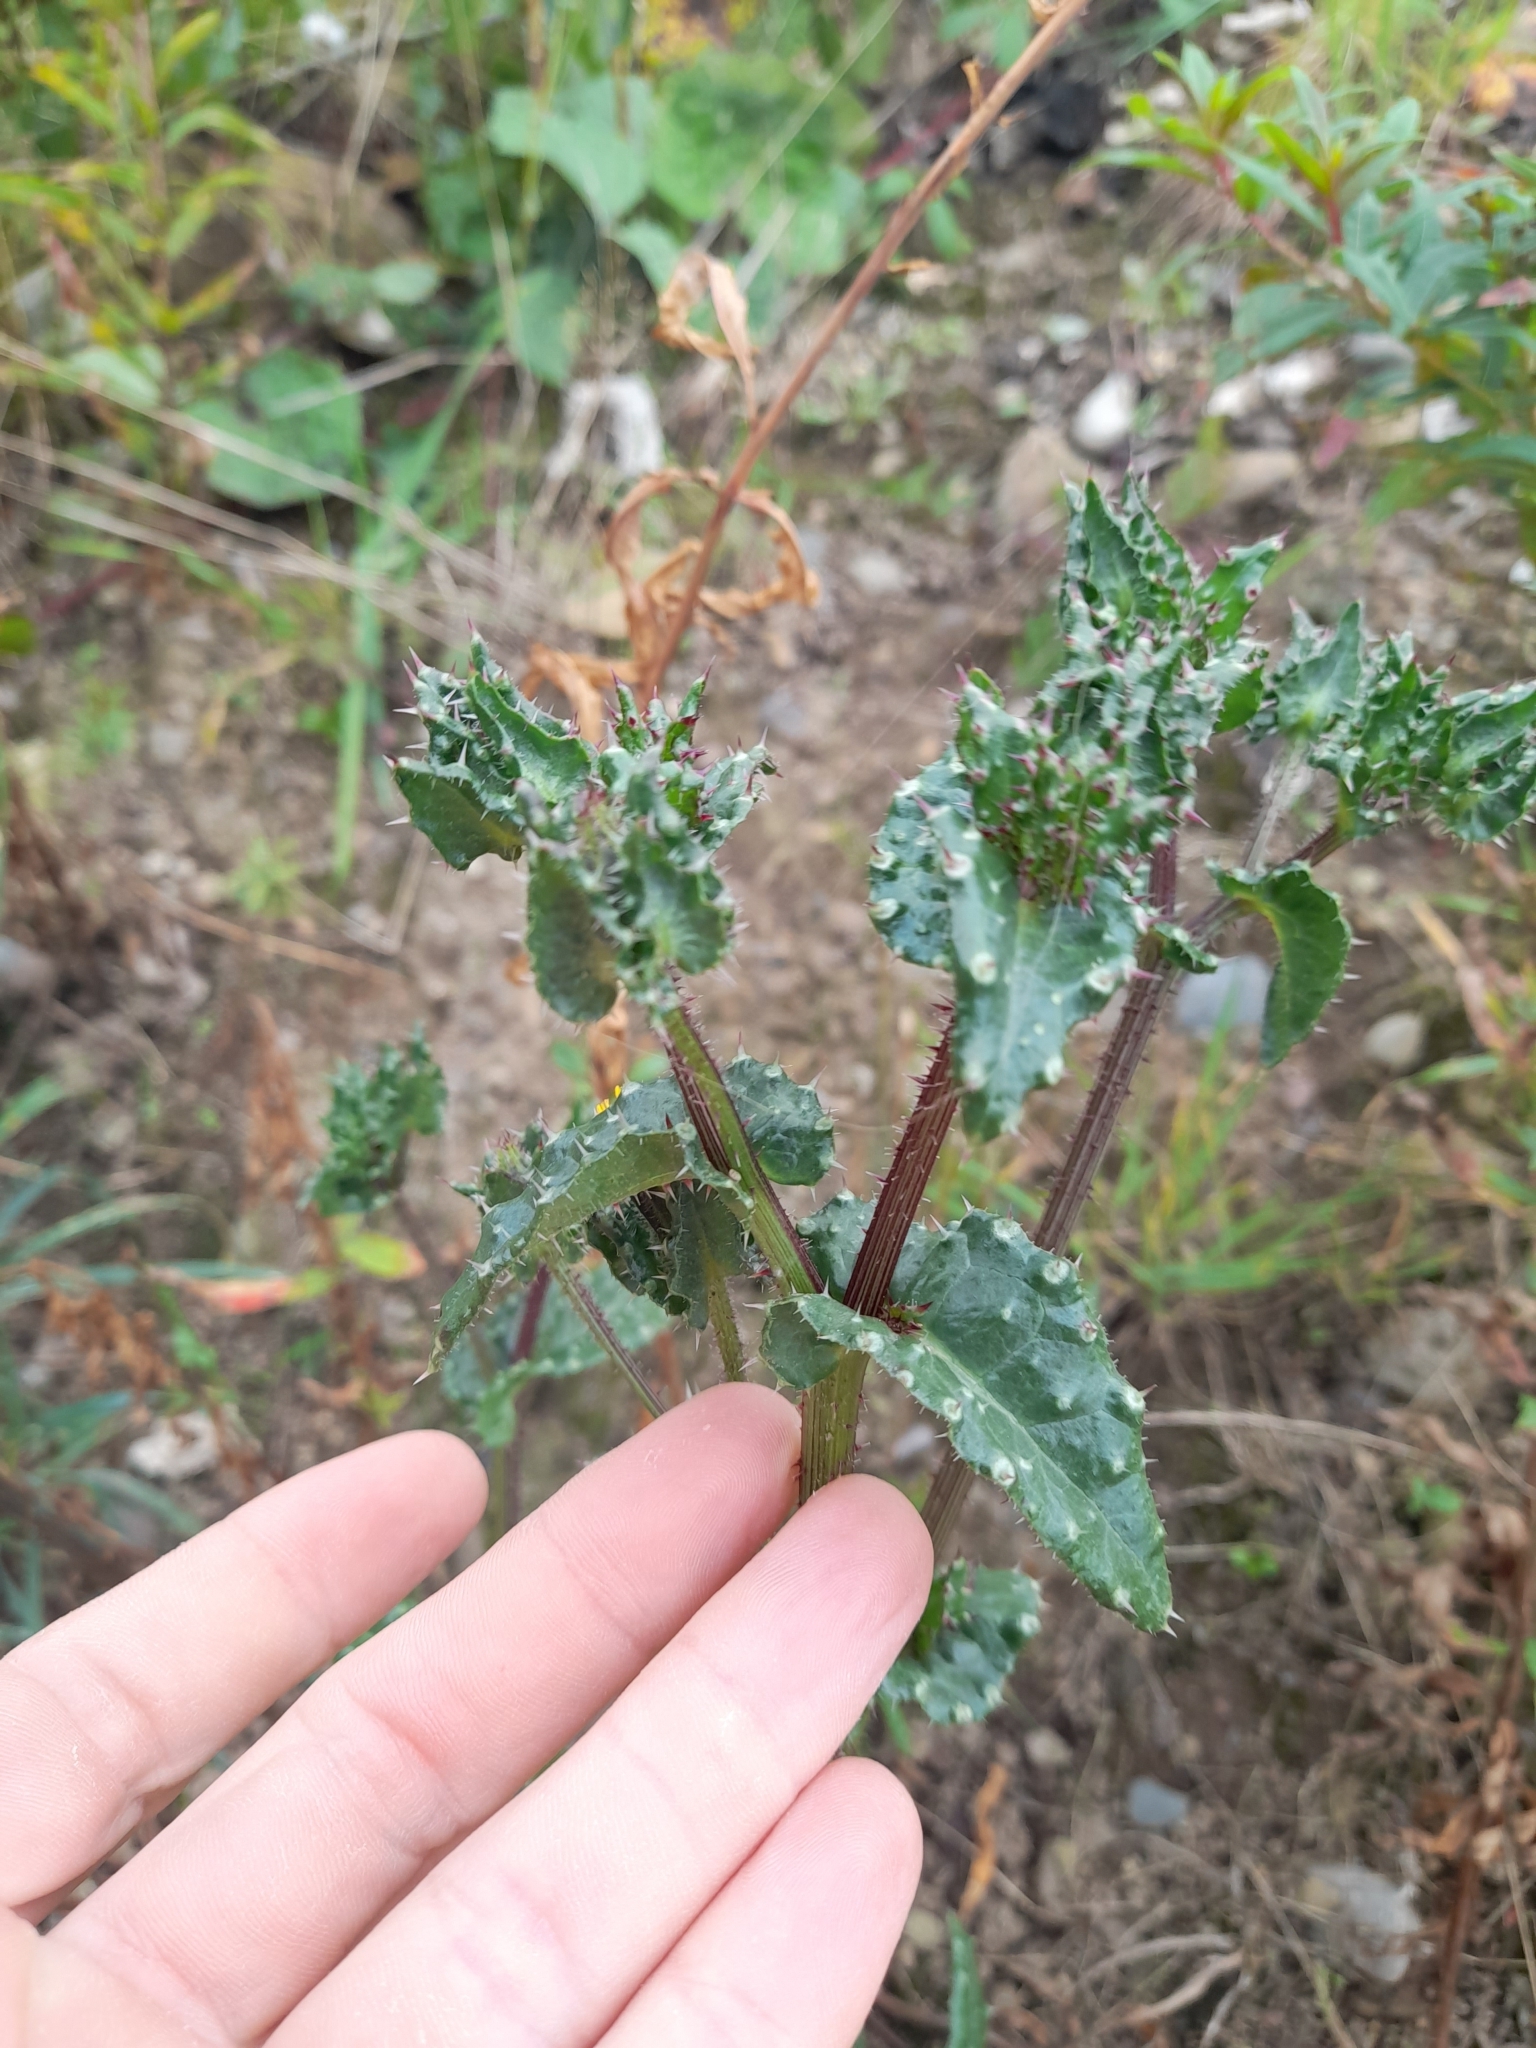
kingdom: Plantae
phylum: Tracheophyta
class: Magnoliopsida
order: Asterales
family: Asteraceae
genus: Helminthotheca
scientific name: Helminthotheca echioides
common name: Ox-tongue
